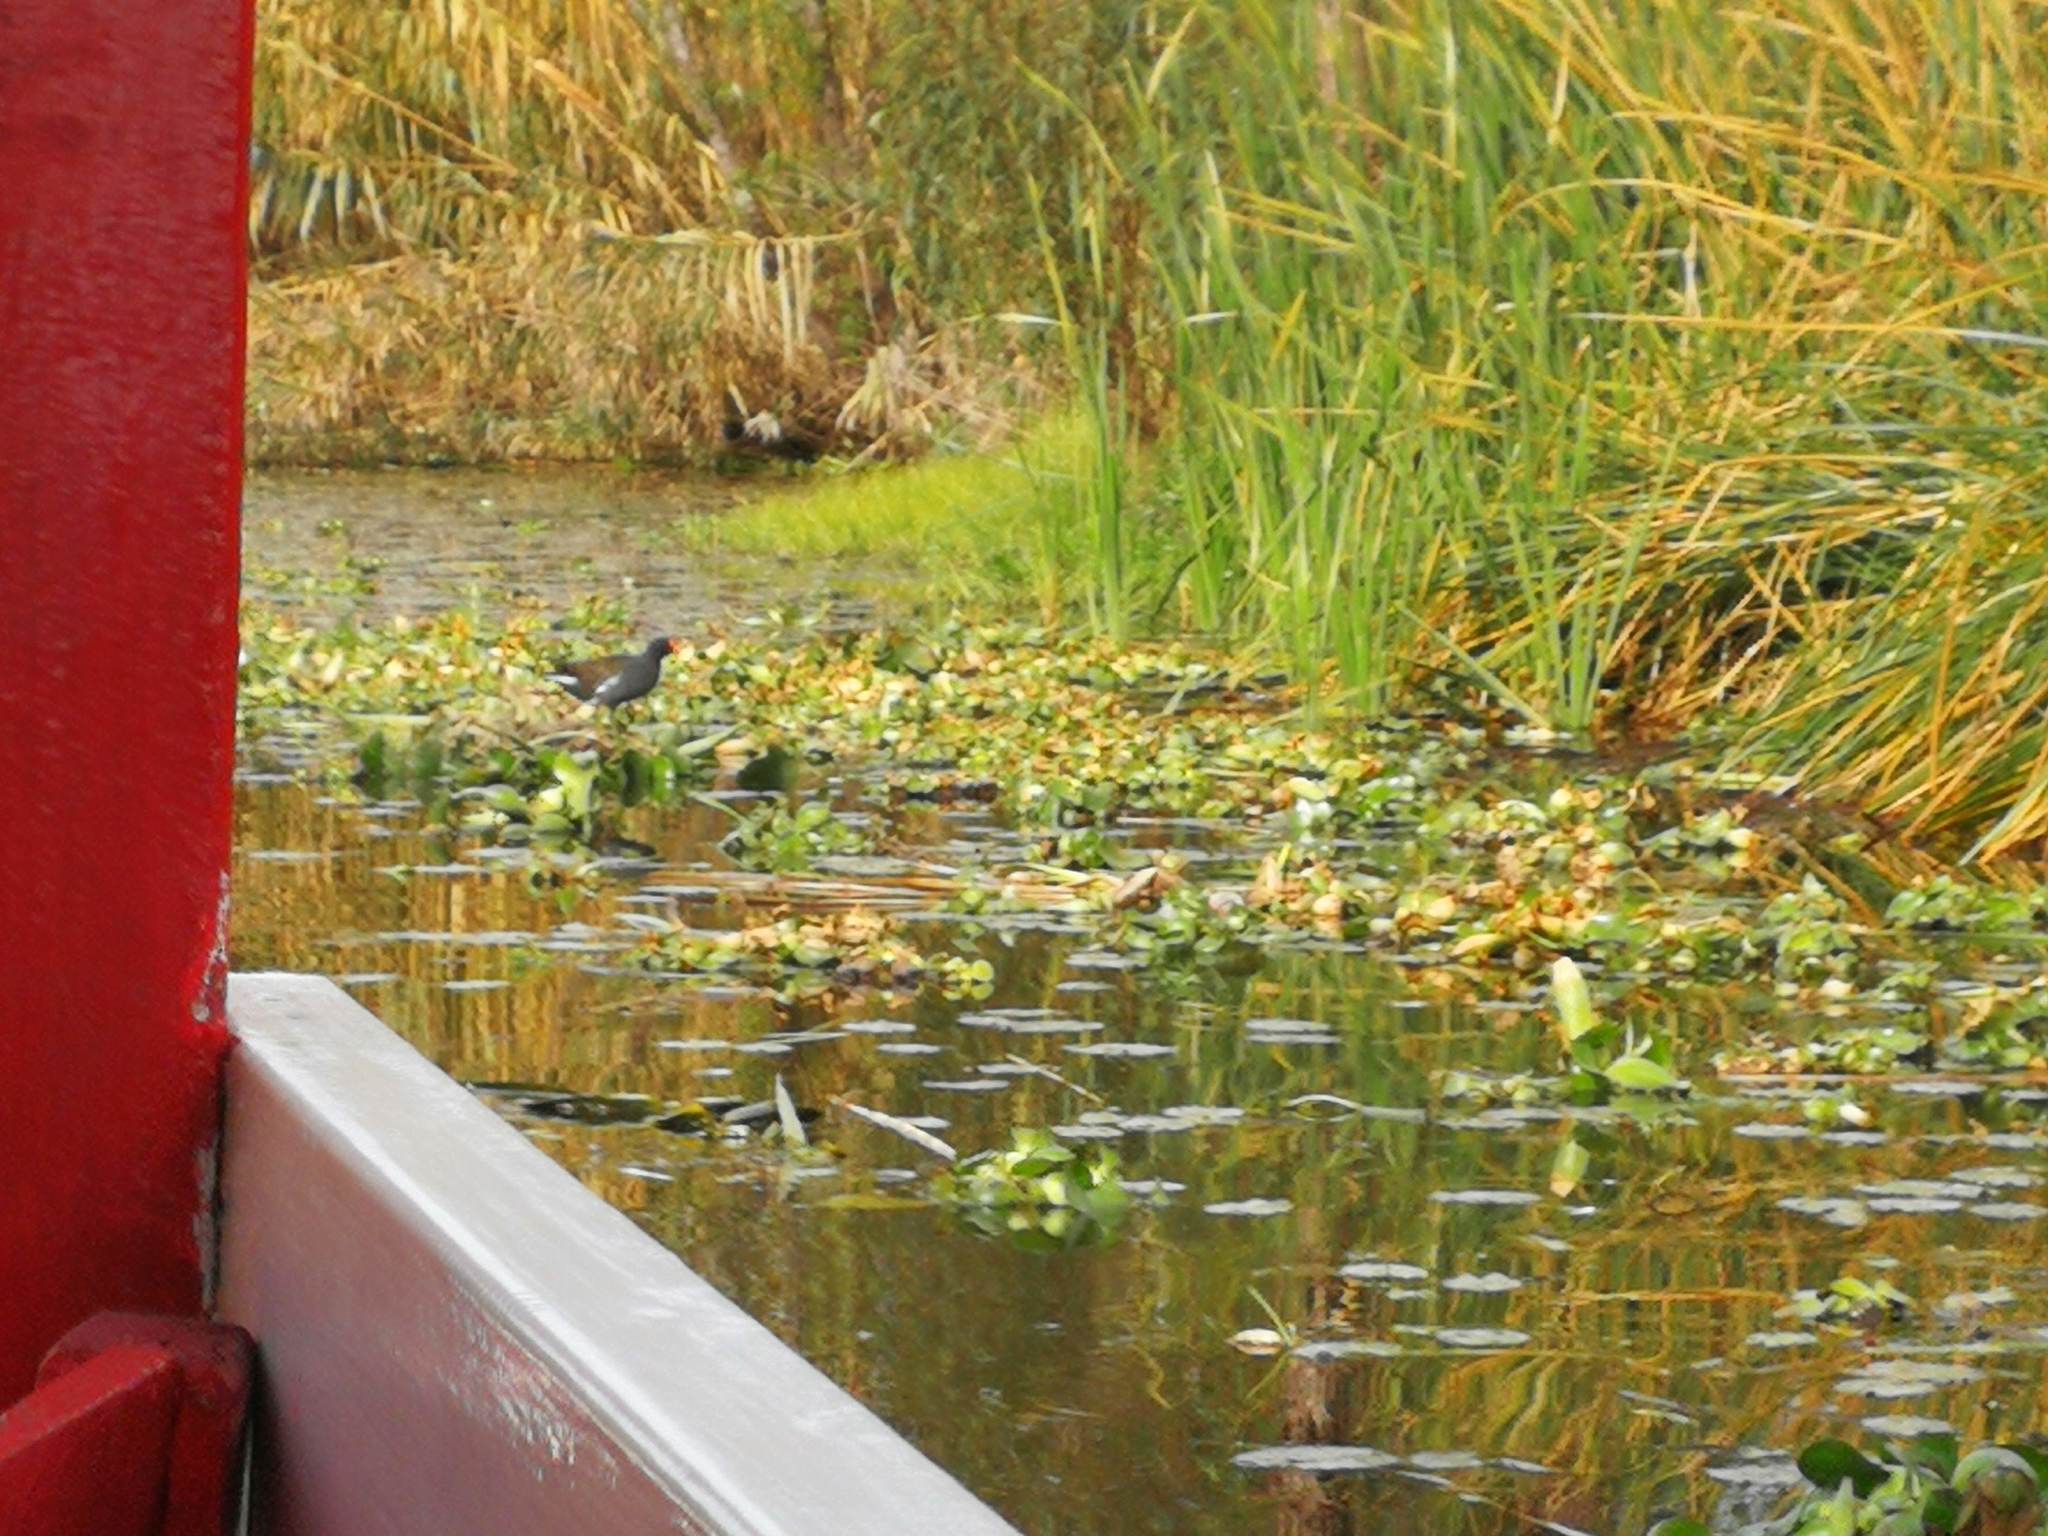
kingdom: Animalia
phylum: Chordata
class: Aves
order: Gruiformes
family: Rallidae
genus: Gallinula
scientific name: Gallinula chloropus
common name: Common moorhen
